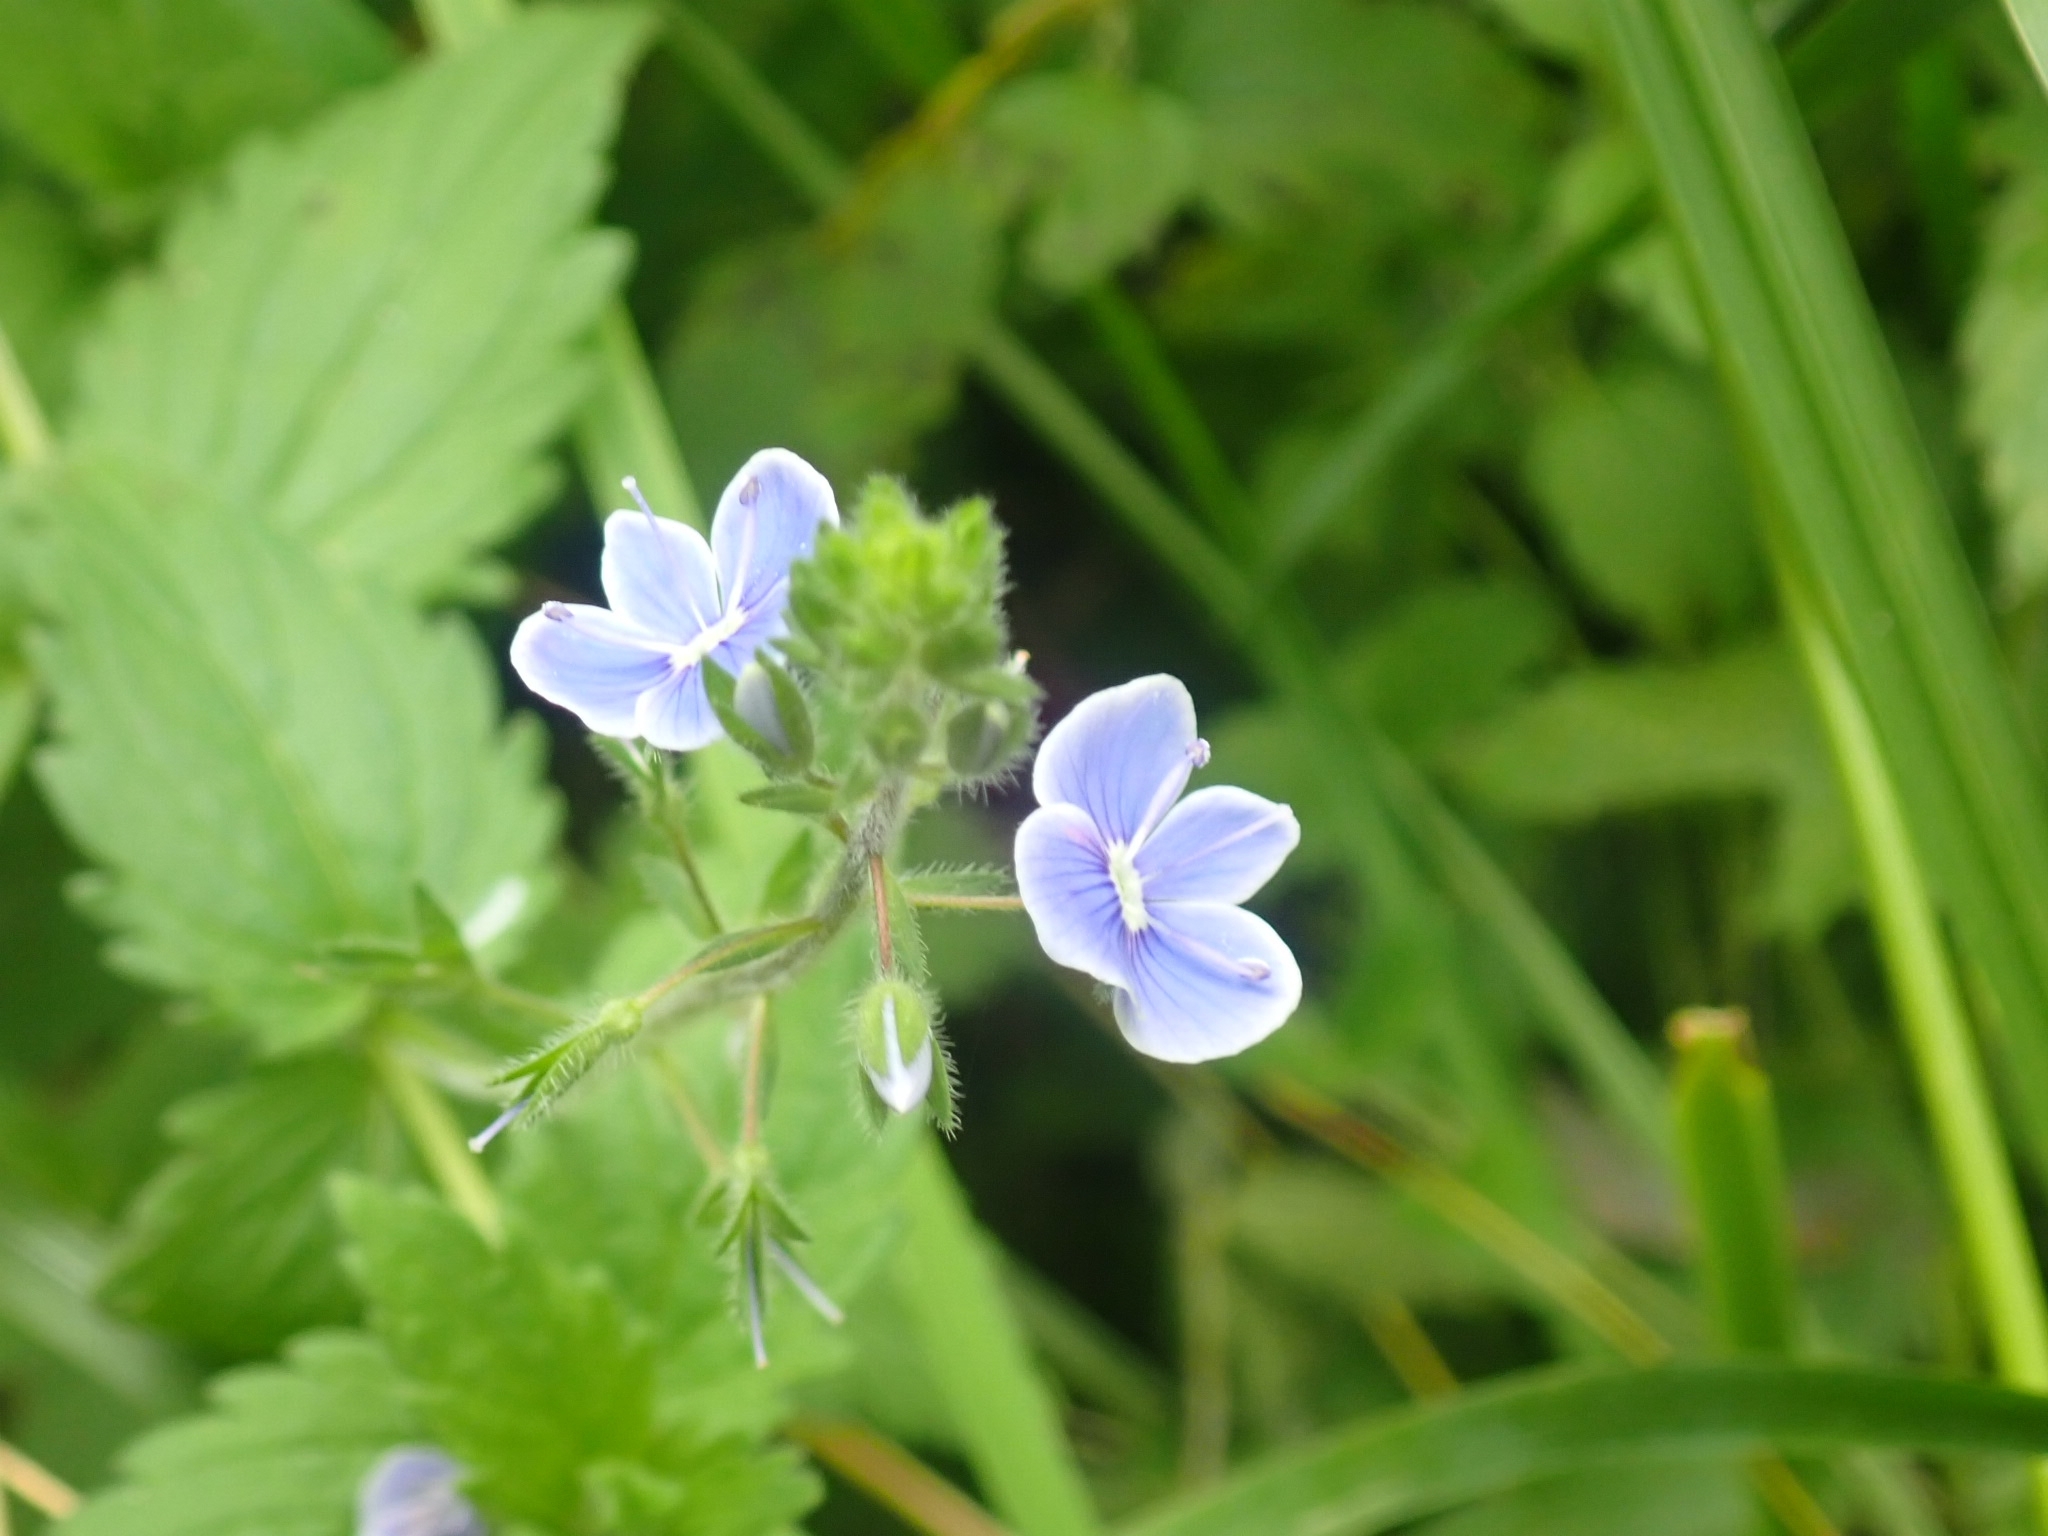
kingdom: Plantae
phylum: Tracheophyta
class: Magnoliopsida
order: Lamiales
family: Plantaginaceae
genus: Veronica
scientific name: Veronica chamaedrys
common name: Germander speedwell
